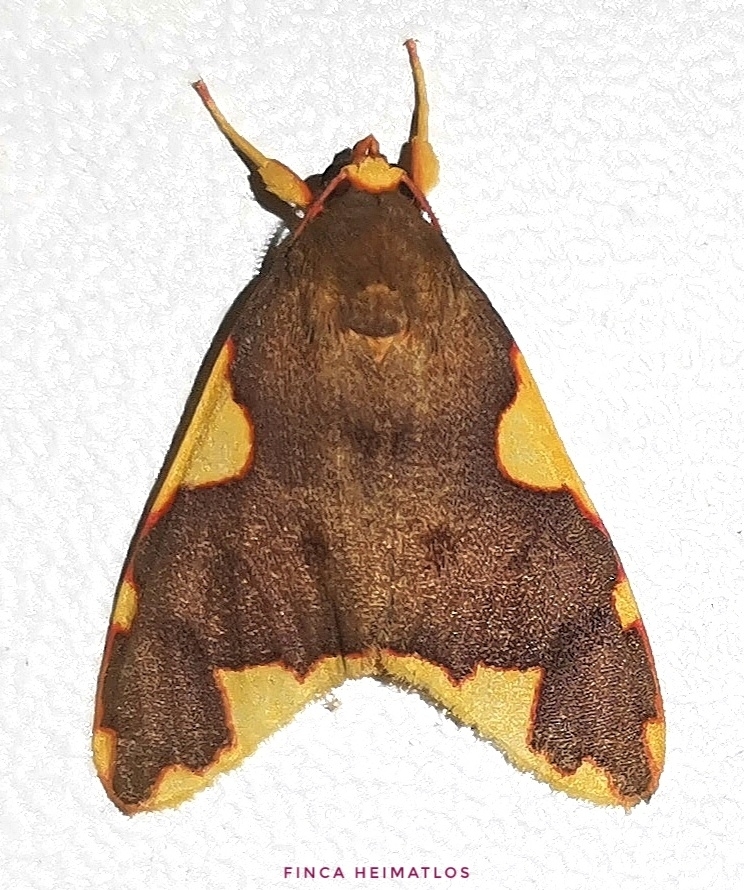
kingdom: Animalia
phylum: Arthropoda
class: Insecta
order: Lepidoptera
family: Erebidae
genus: Hyponerita
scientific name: Hyponerita declivis
